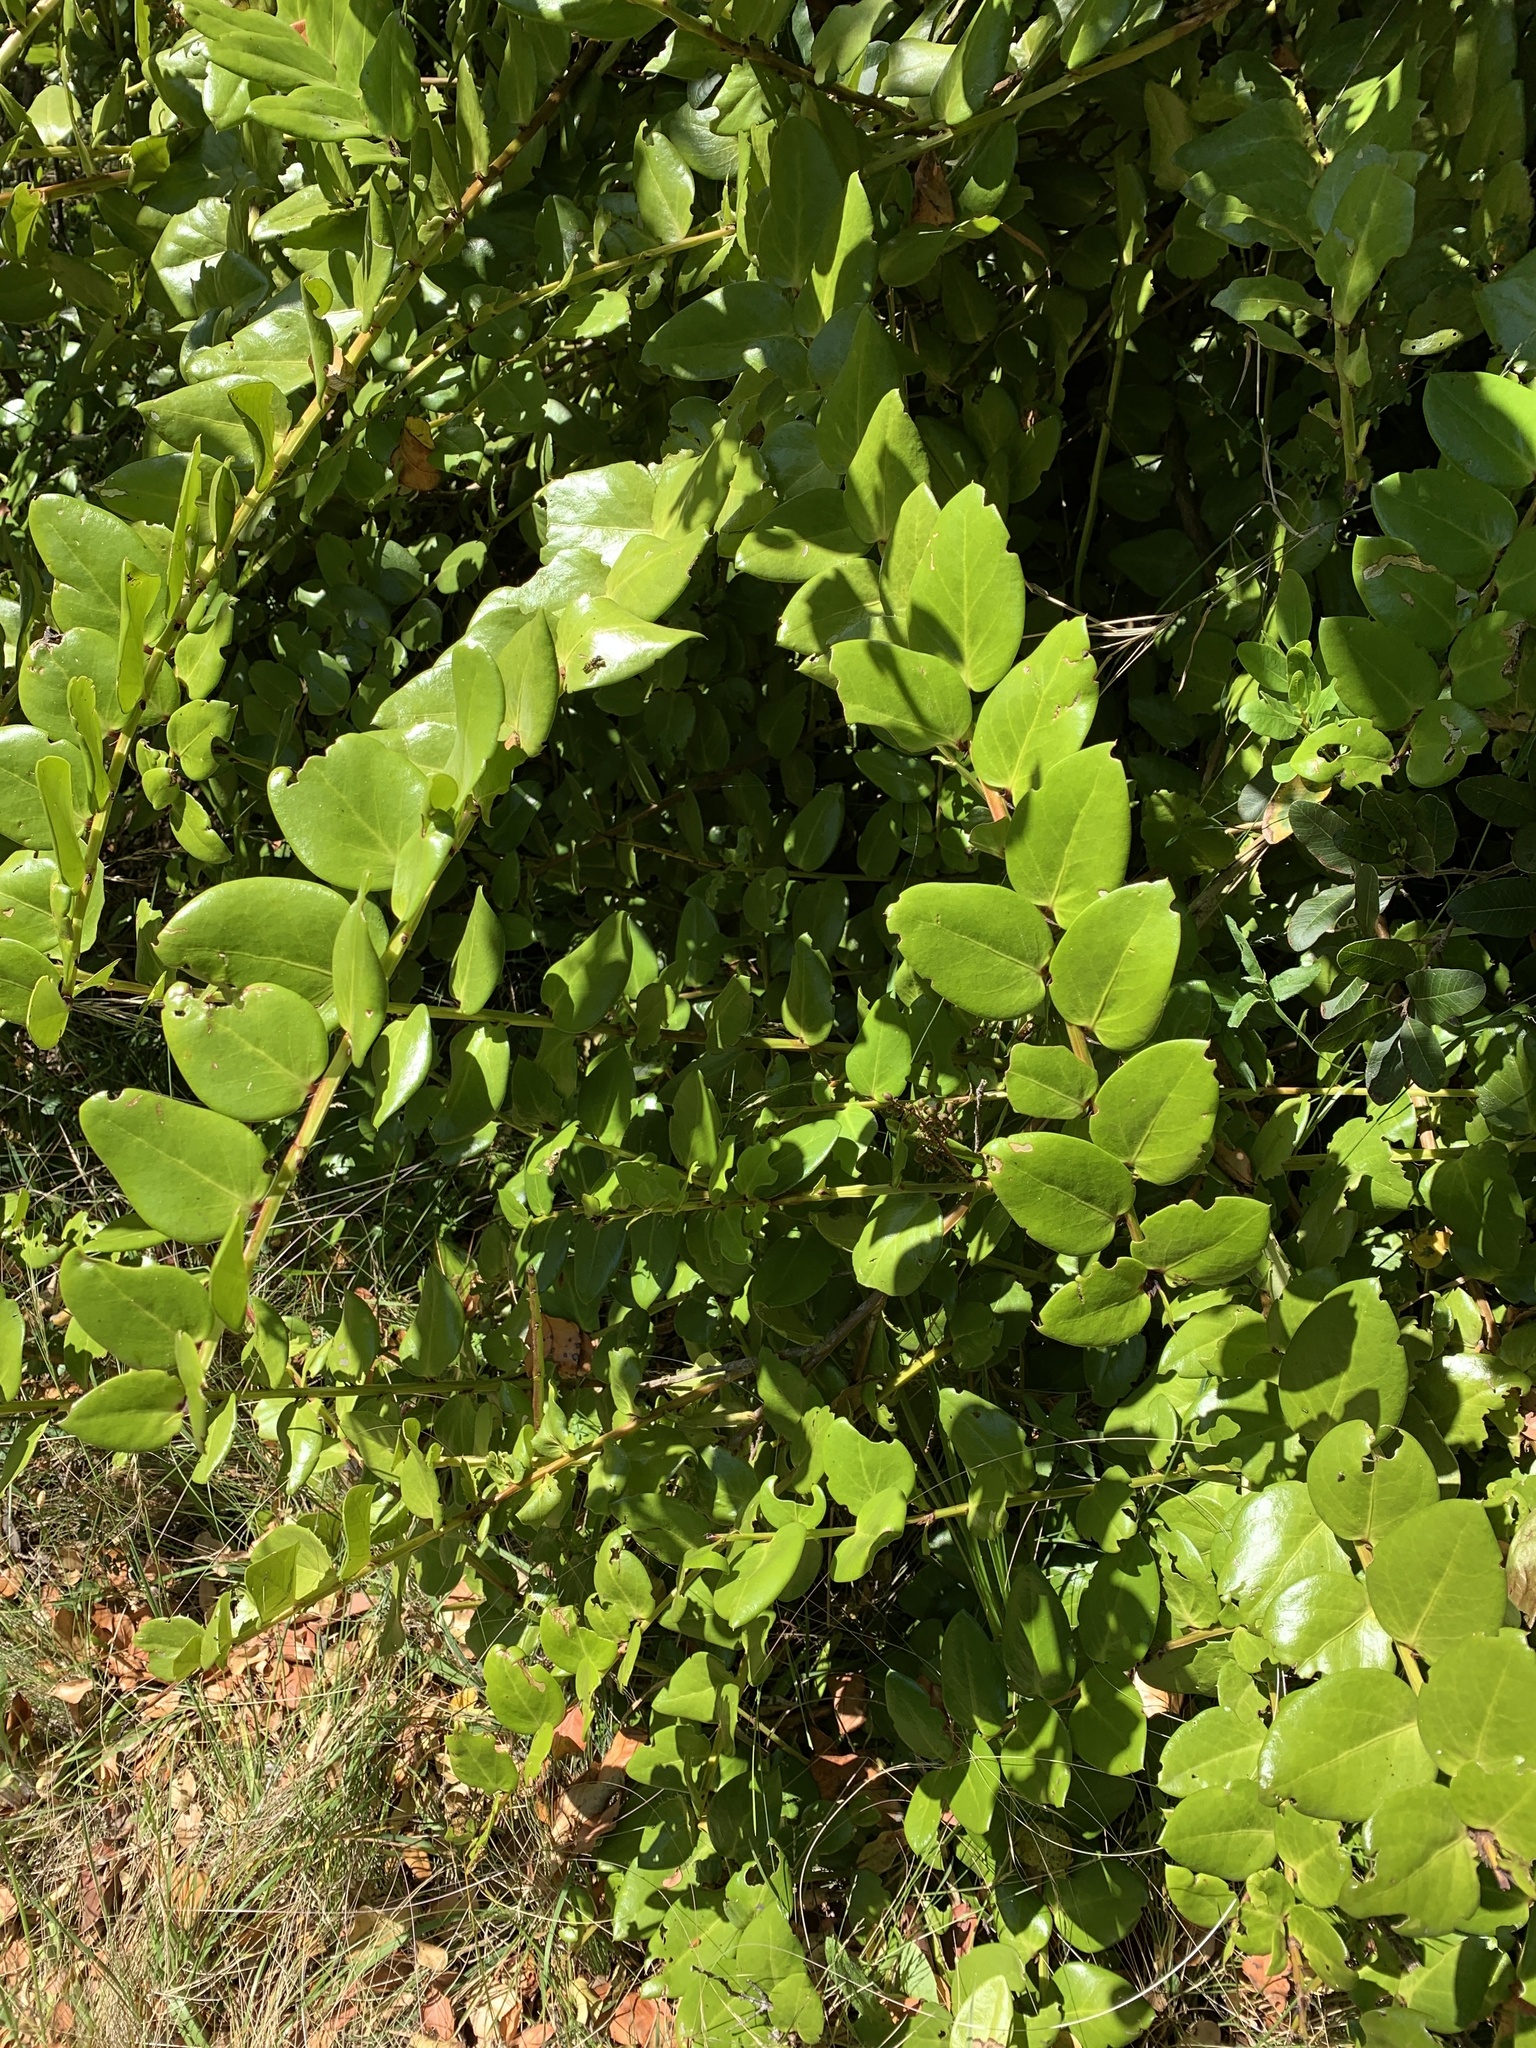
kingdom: Plantae
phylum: Tracheophyta
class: Magnoliopsida
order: Apiales
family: Griseliniaceae
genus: Griselinia
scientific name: Griselinia scandens
